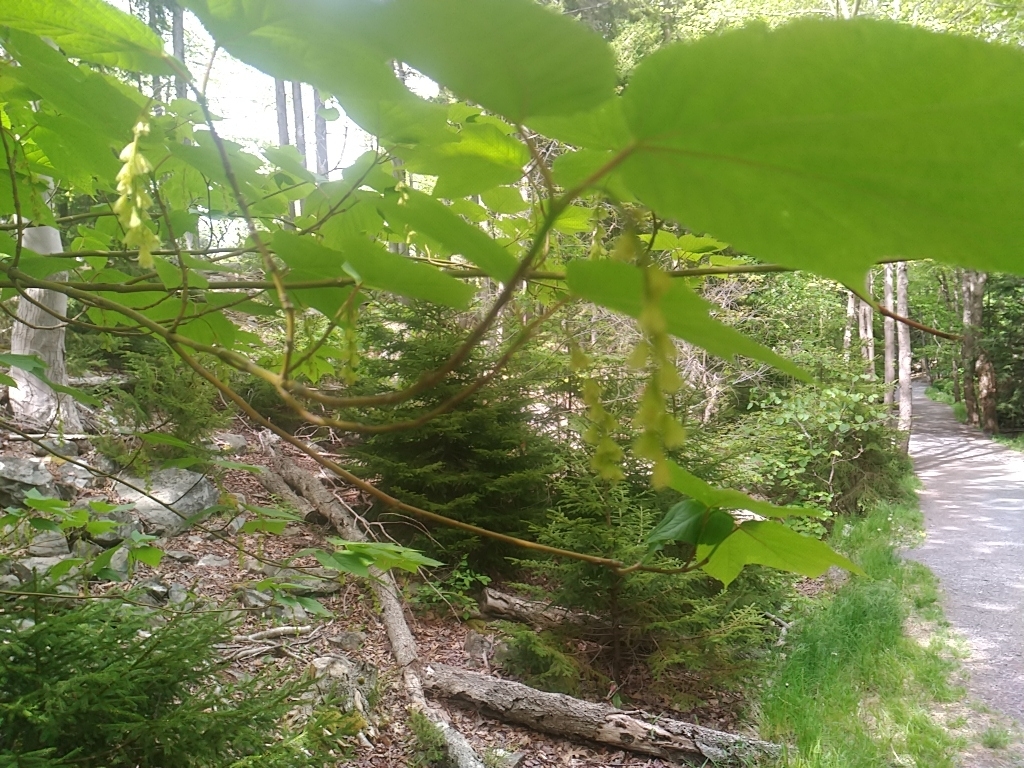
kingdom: Plantae
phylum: Tracheophyta
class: Magnoliopsida
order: Sapindales
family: Sapindaceae
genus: Acer
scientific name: Acer pensylvanicum
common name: Moosewood
